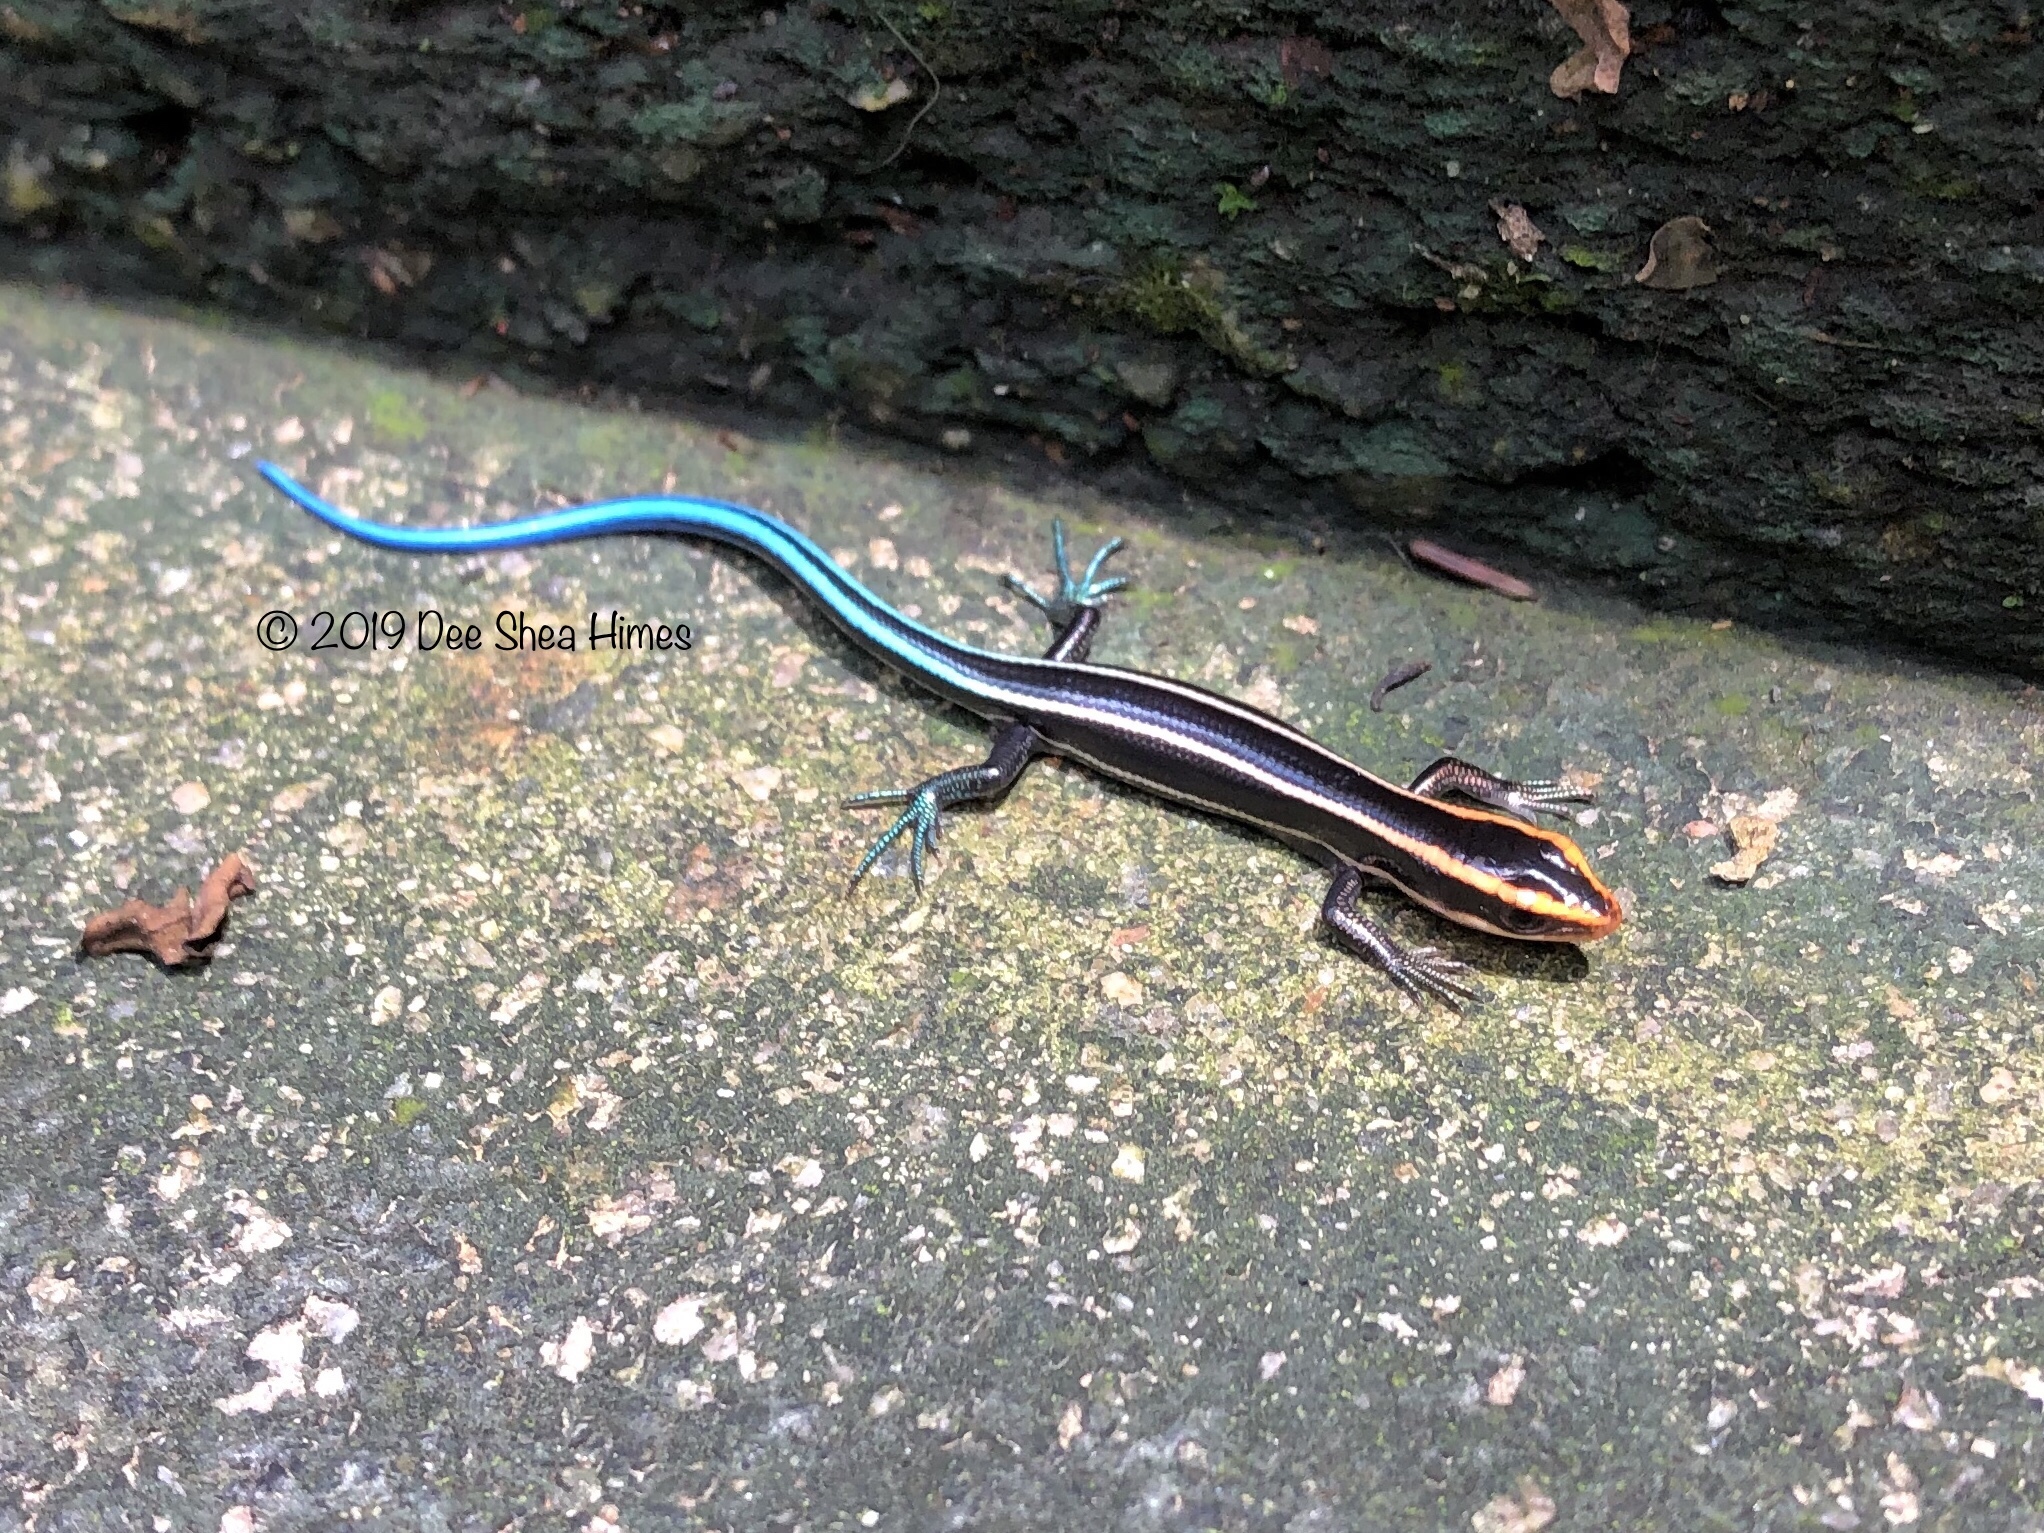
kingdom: Animalia
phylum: Chordata
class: Squamata
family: Scincidae
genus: Plestiodon
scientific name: Plestiodon quadrilineatus
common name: Four-striped skink
